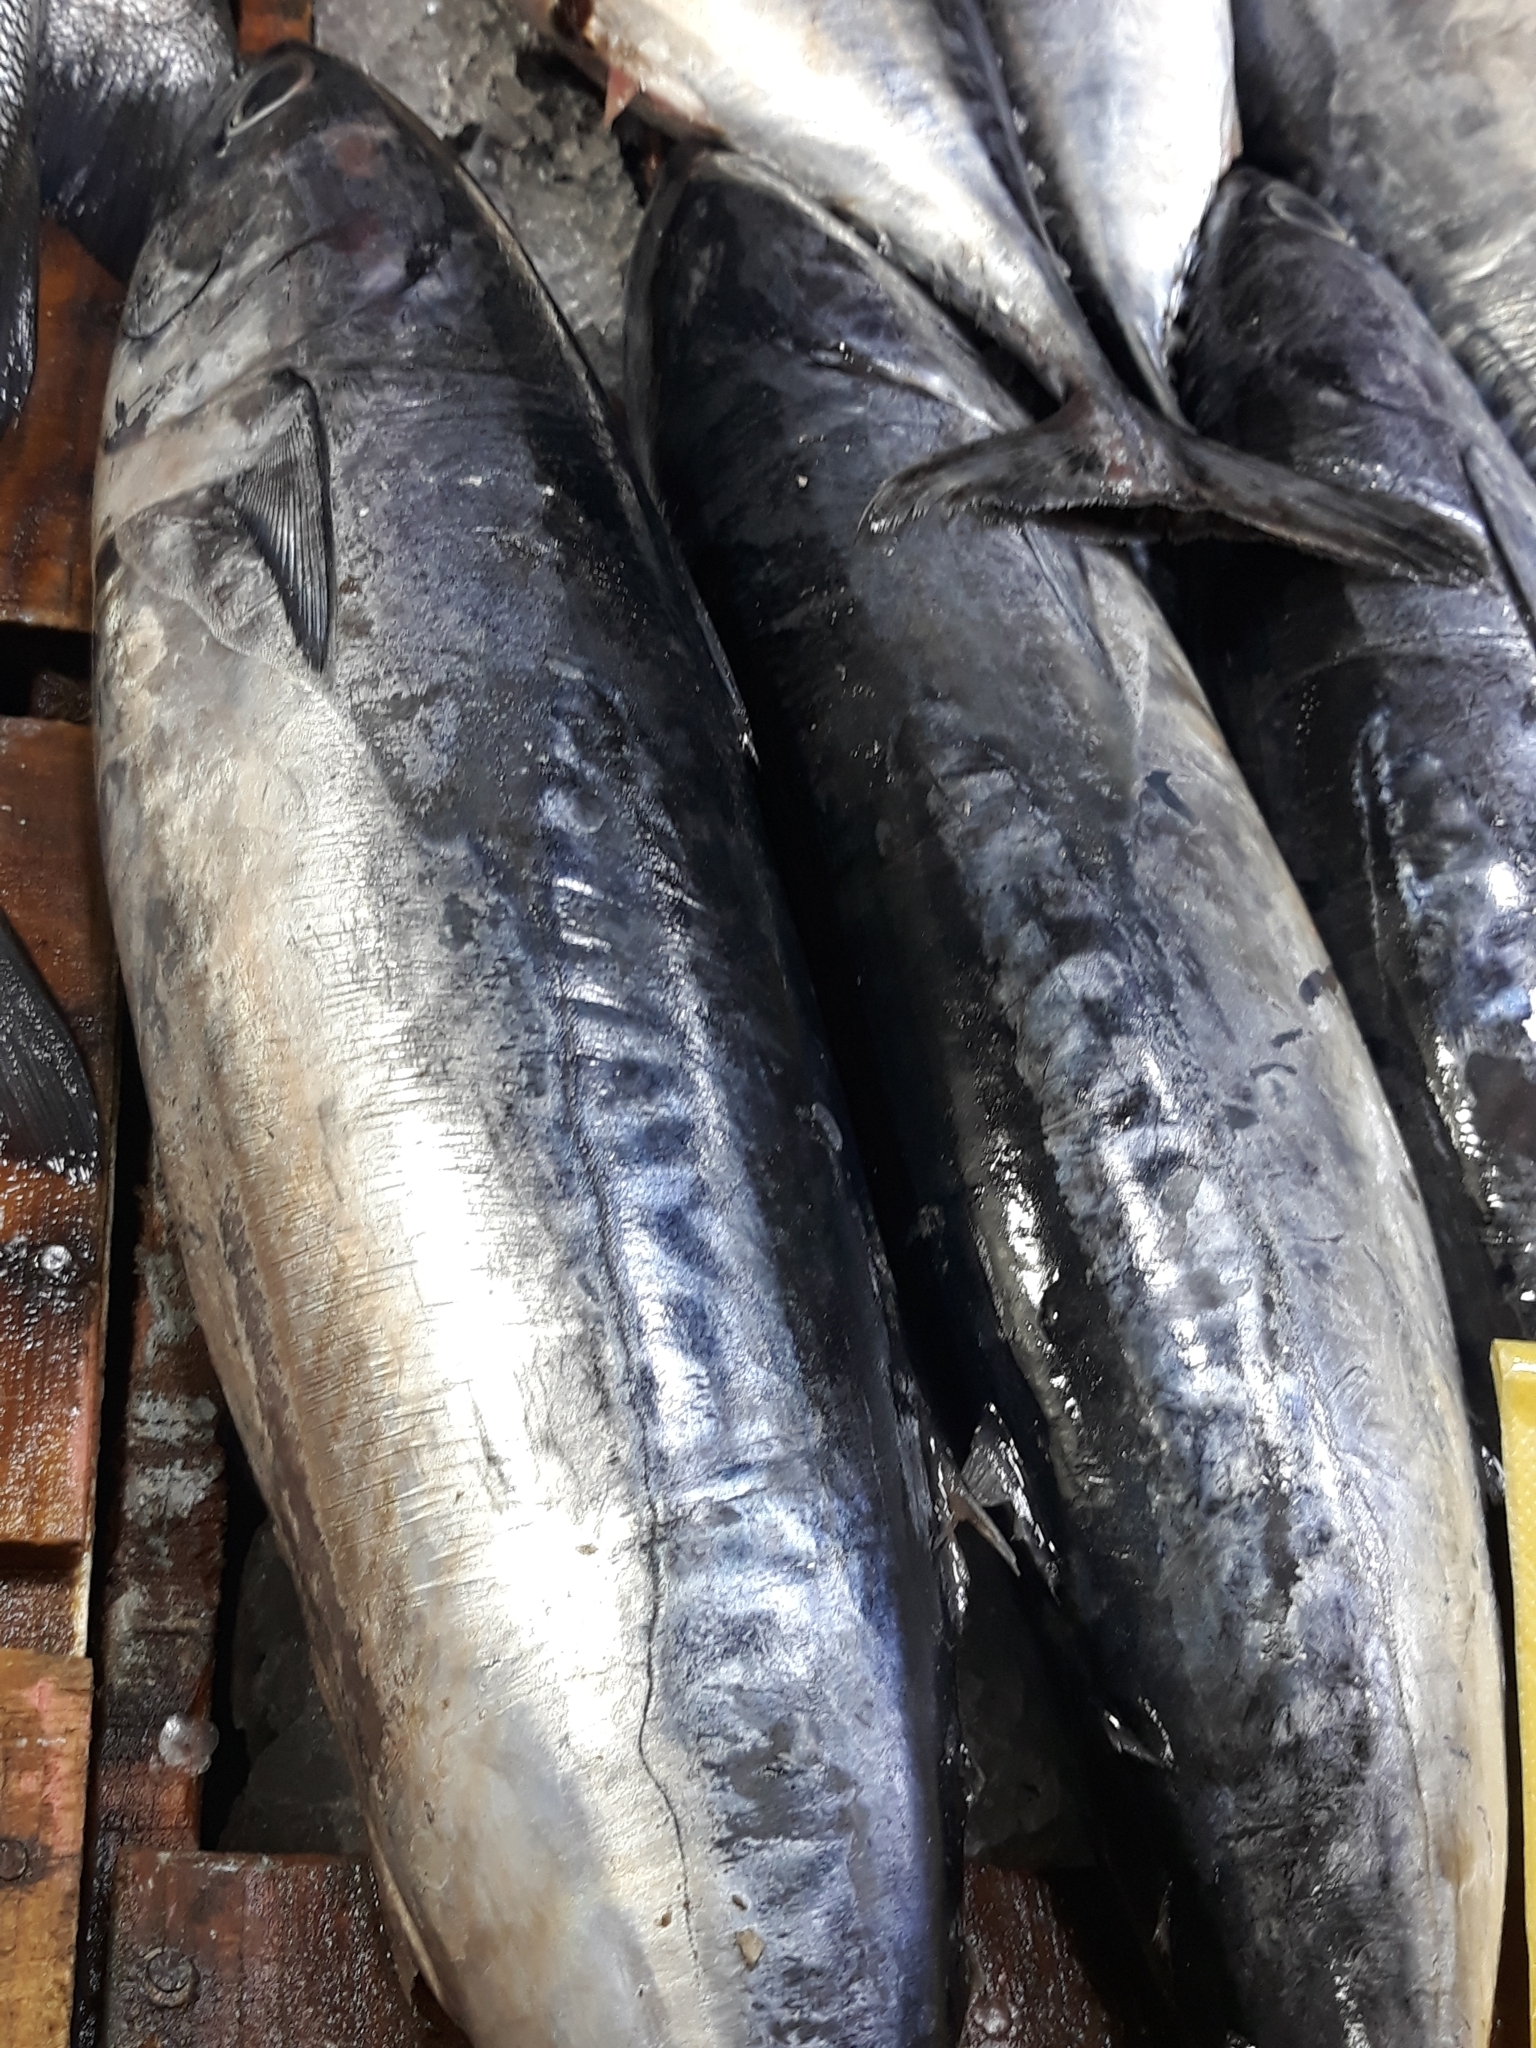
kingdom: Animalia
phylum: Chordata
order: Perciformes
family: Scombridae
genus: Auxis
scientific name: Auxis rochei
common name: Bullet tuna
